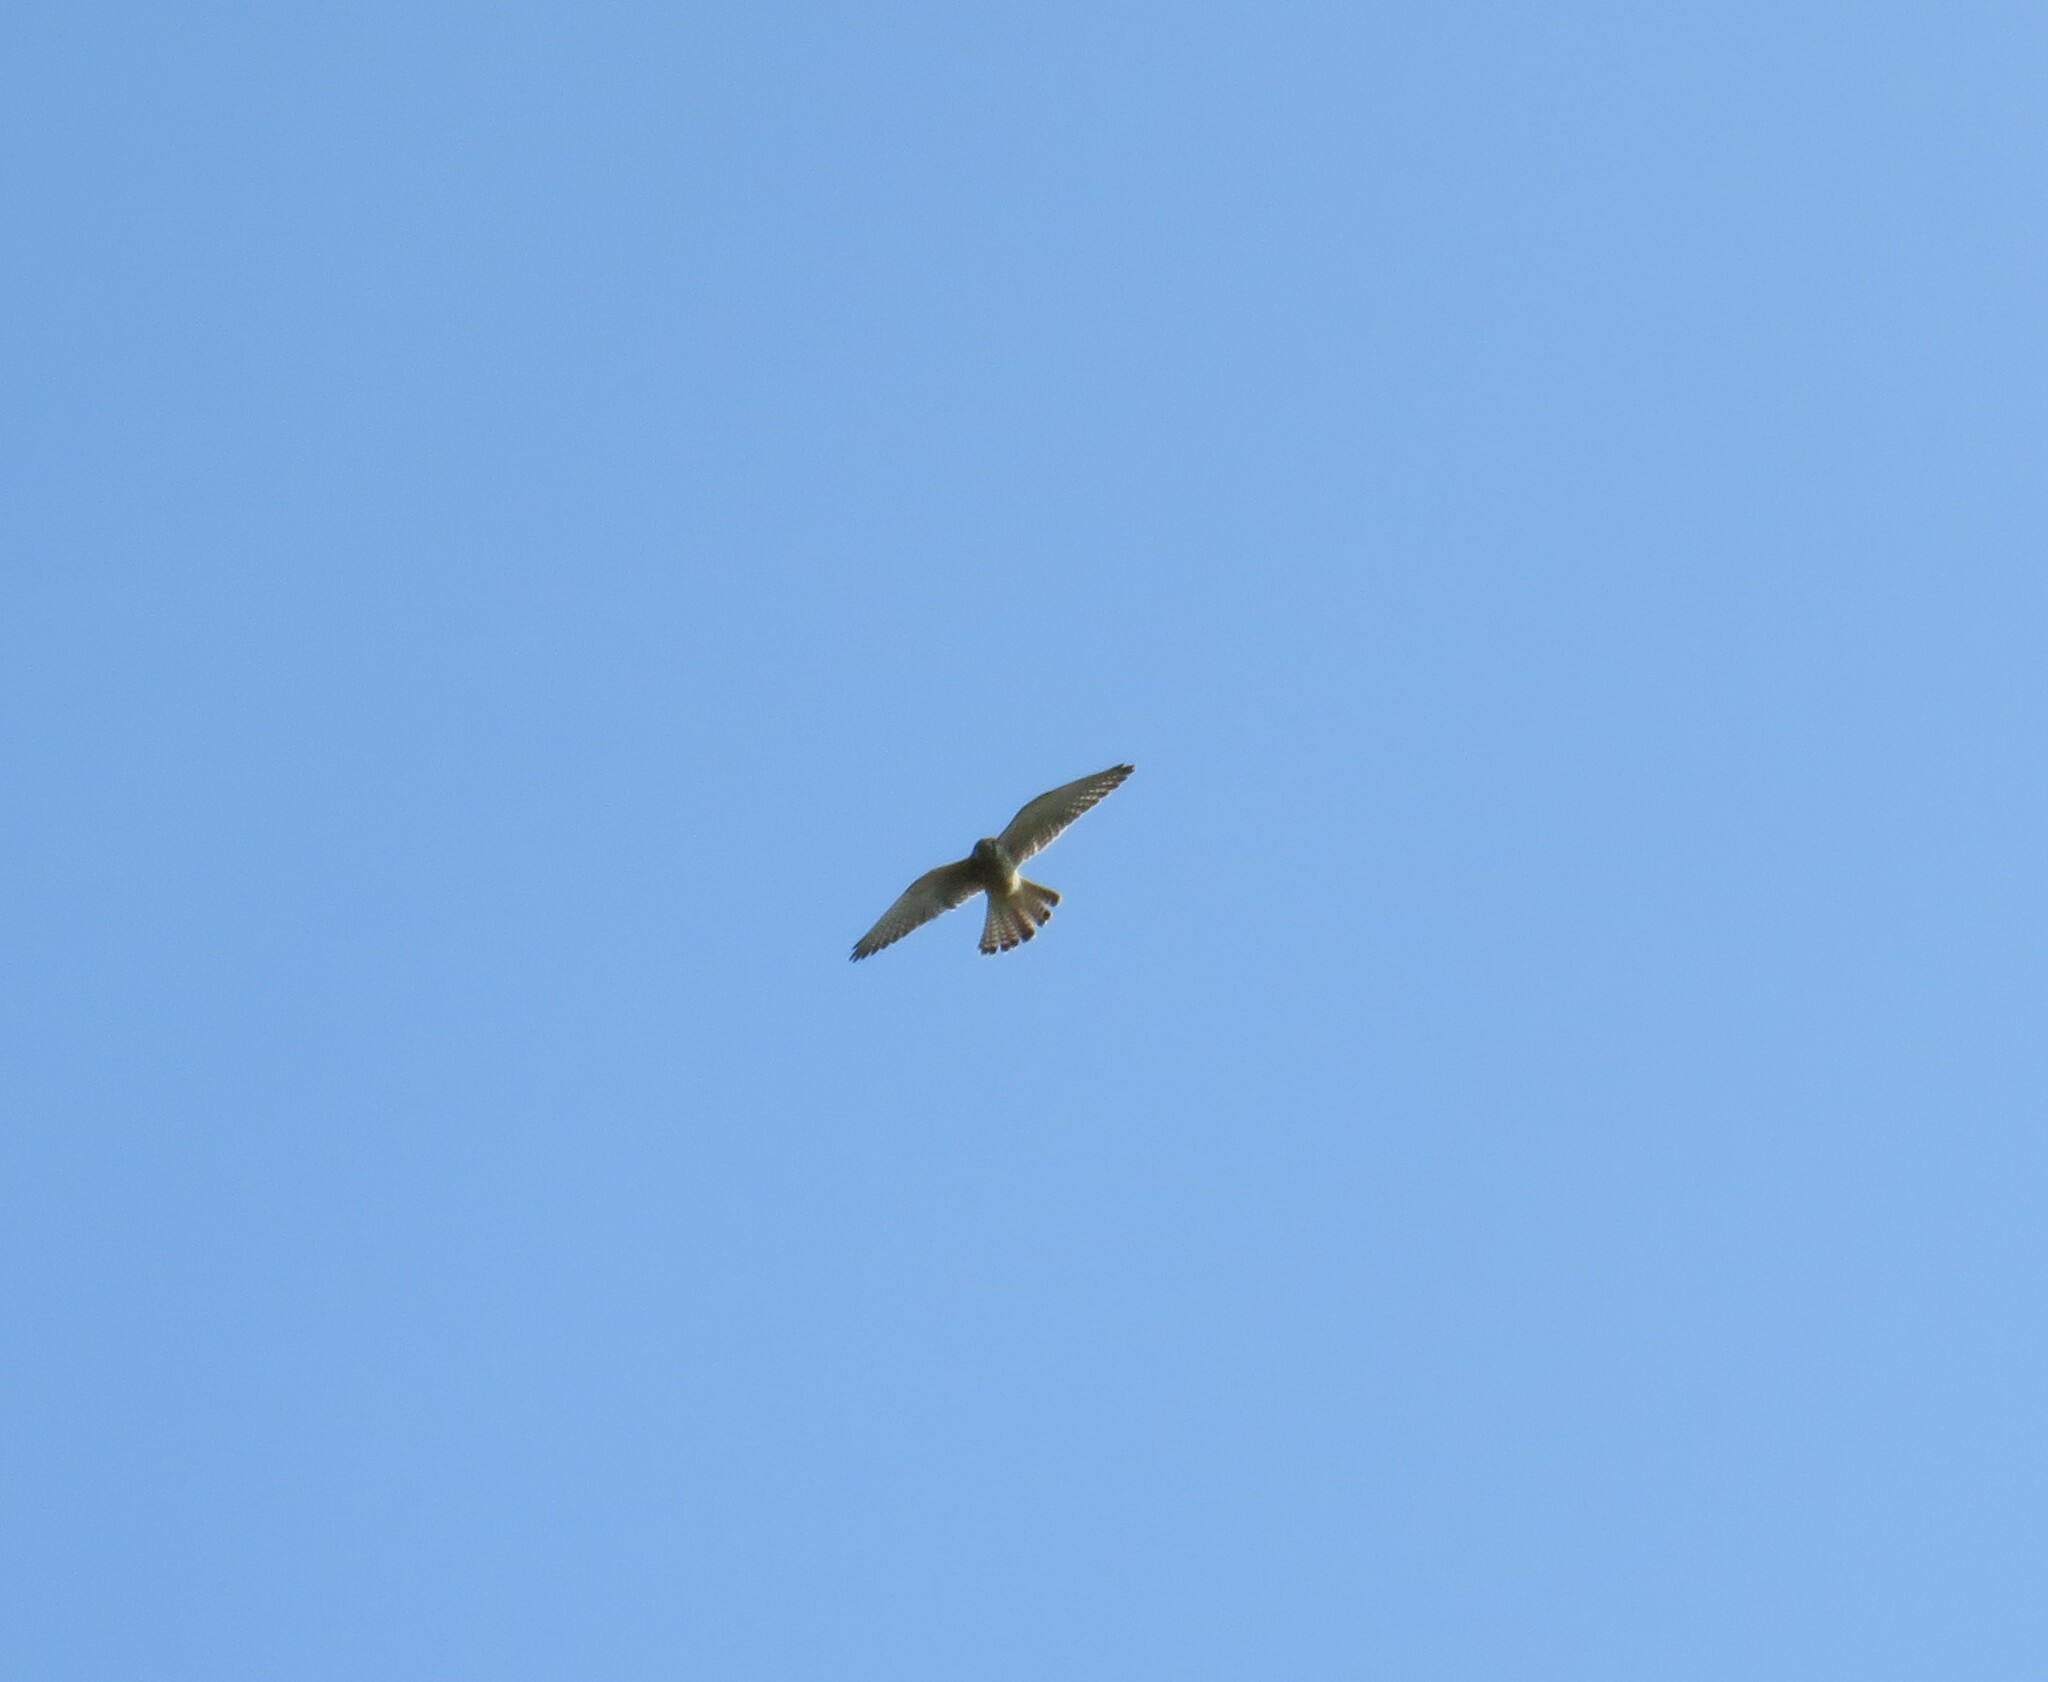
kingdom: Animalia
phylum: Chordata
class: Aves
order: Falconiformes
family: Falconidae
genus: Falco
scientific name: Falco tinnunculus
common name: Common kestrel
